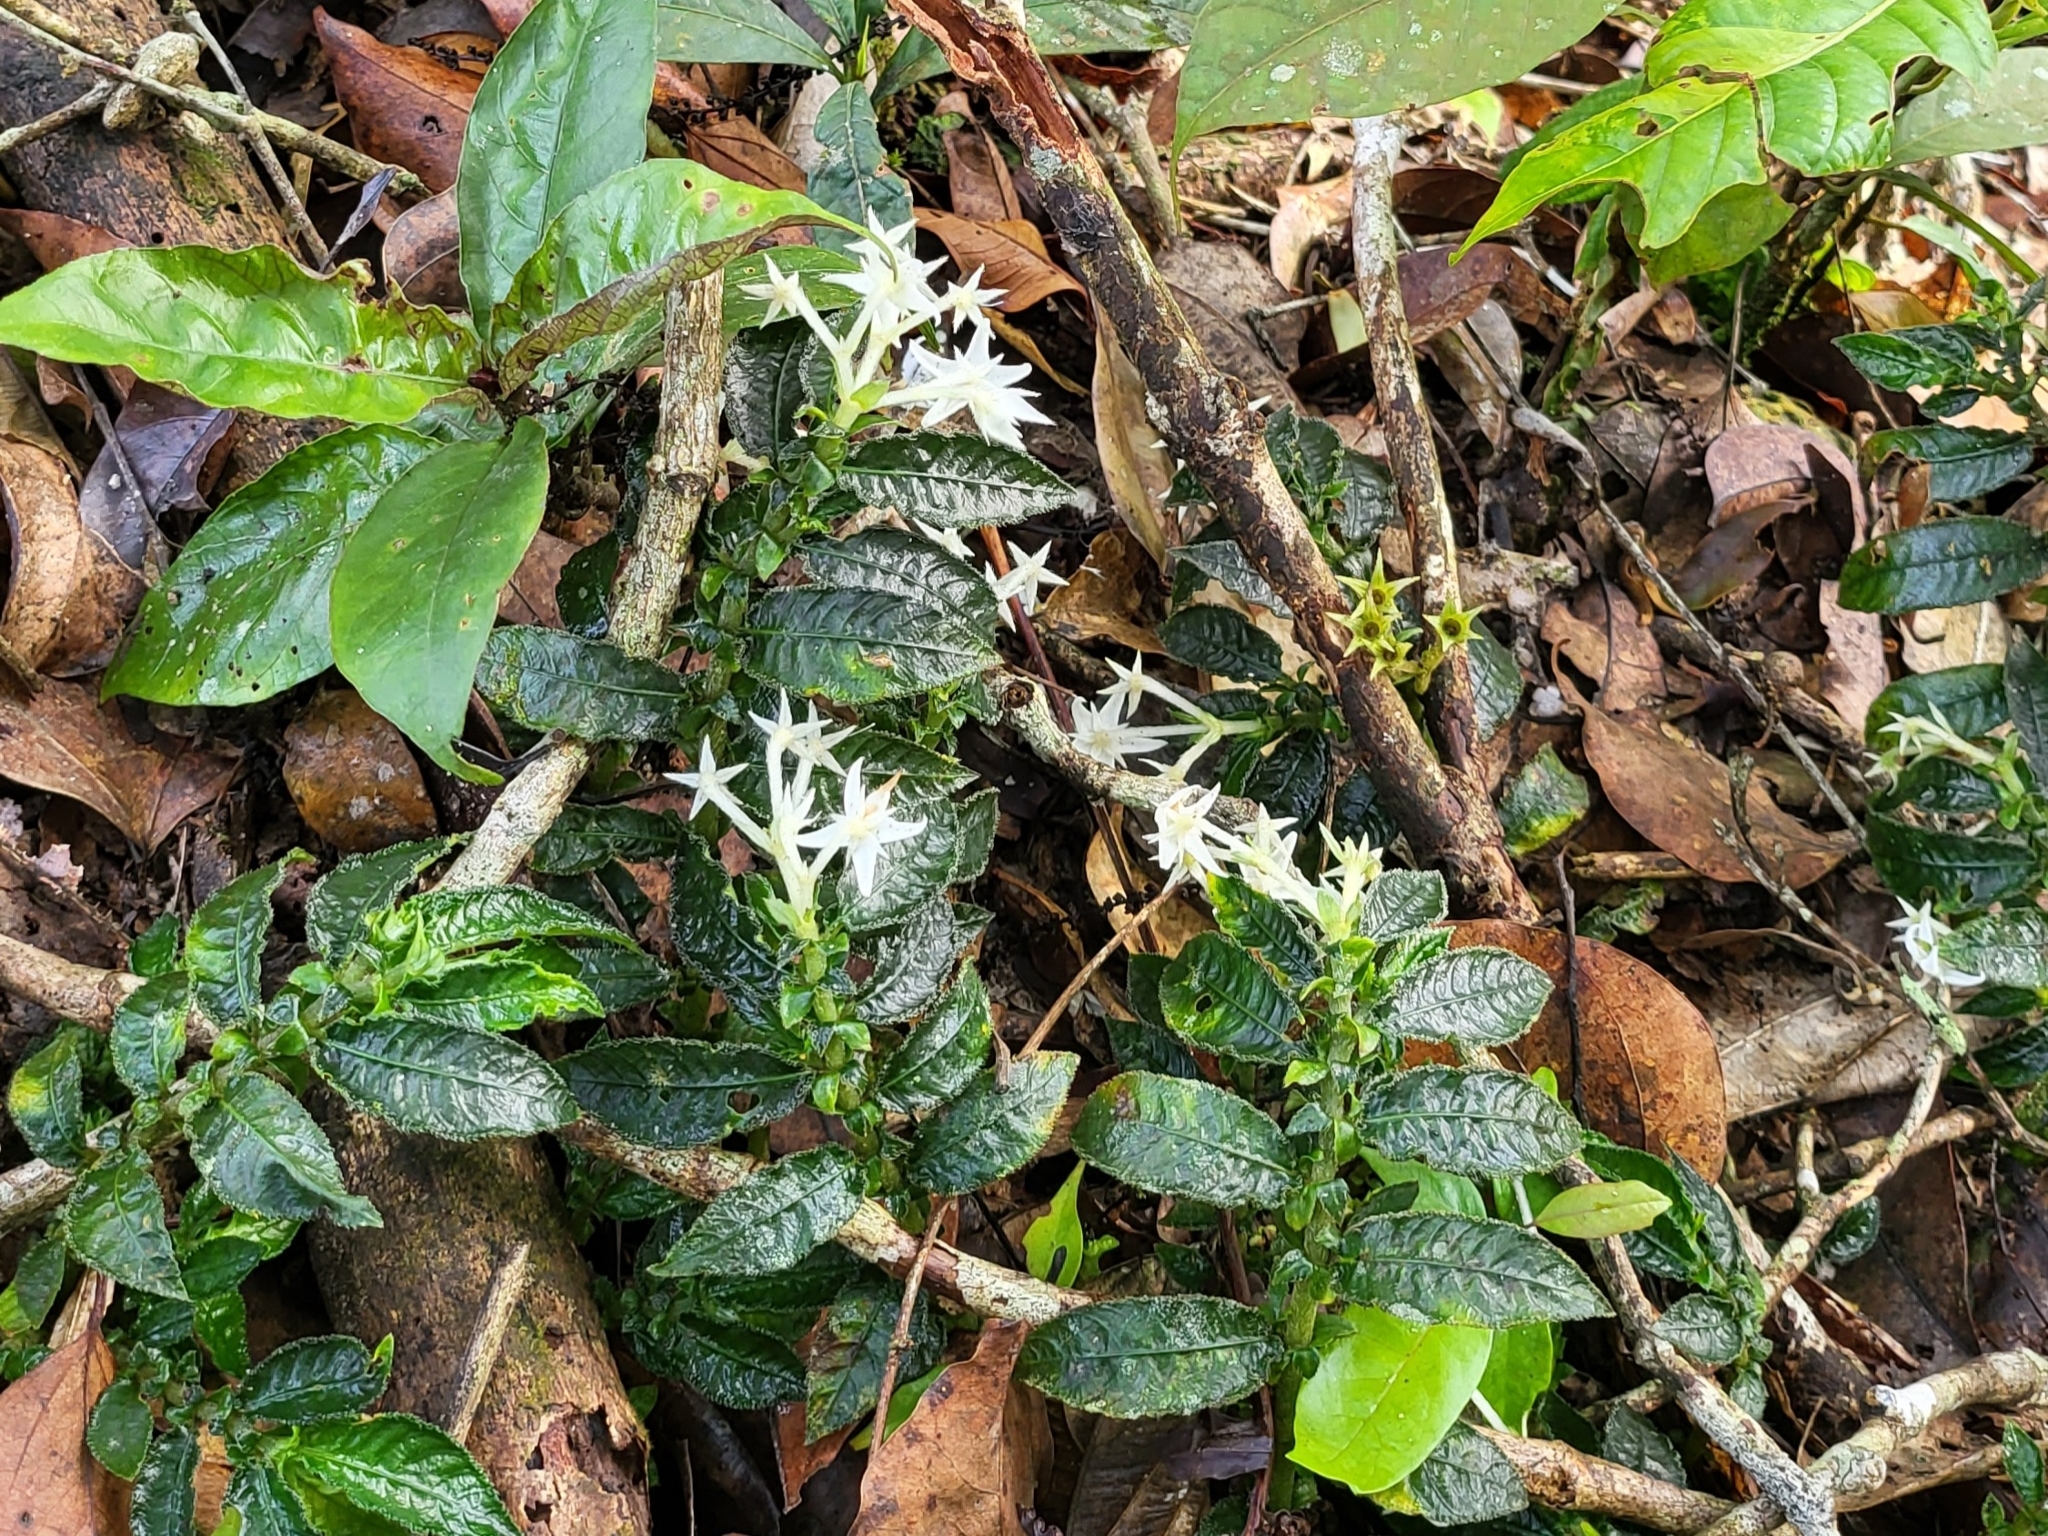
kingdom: Plantae
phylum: Tracheophyta
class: Magnoliopsida
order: Gentianales
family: Rubiaceae
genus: Argostemma
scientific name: Argostemma parvifolium
